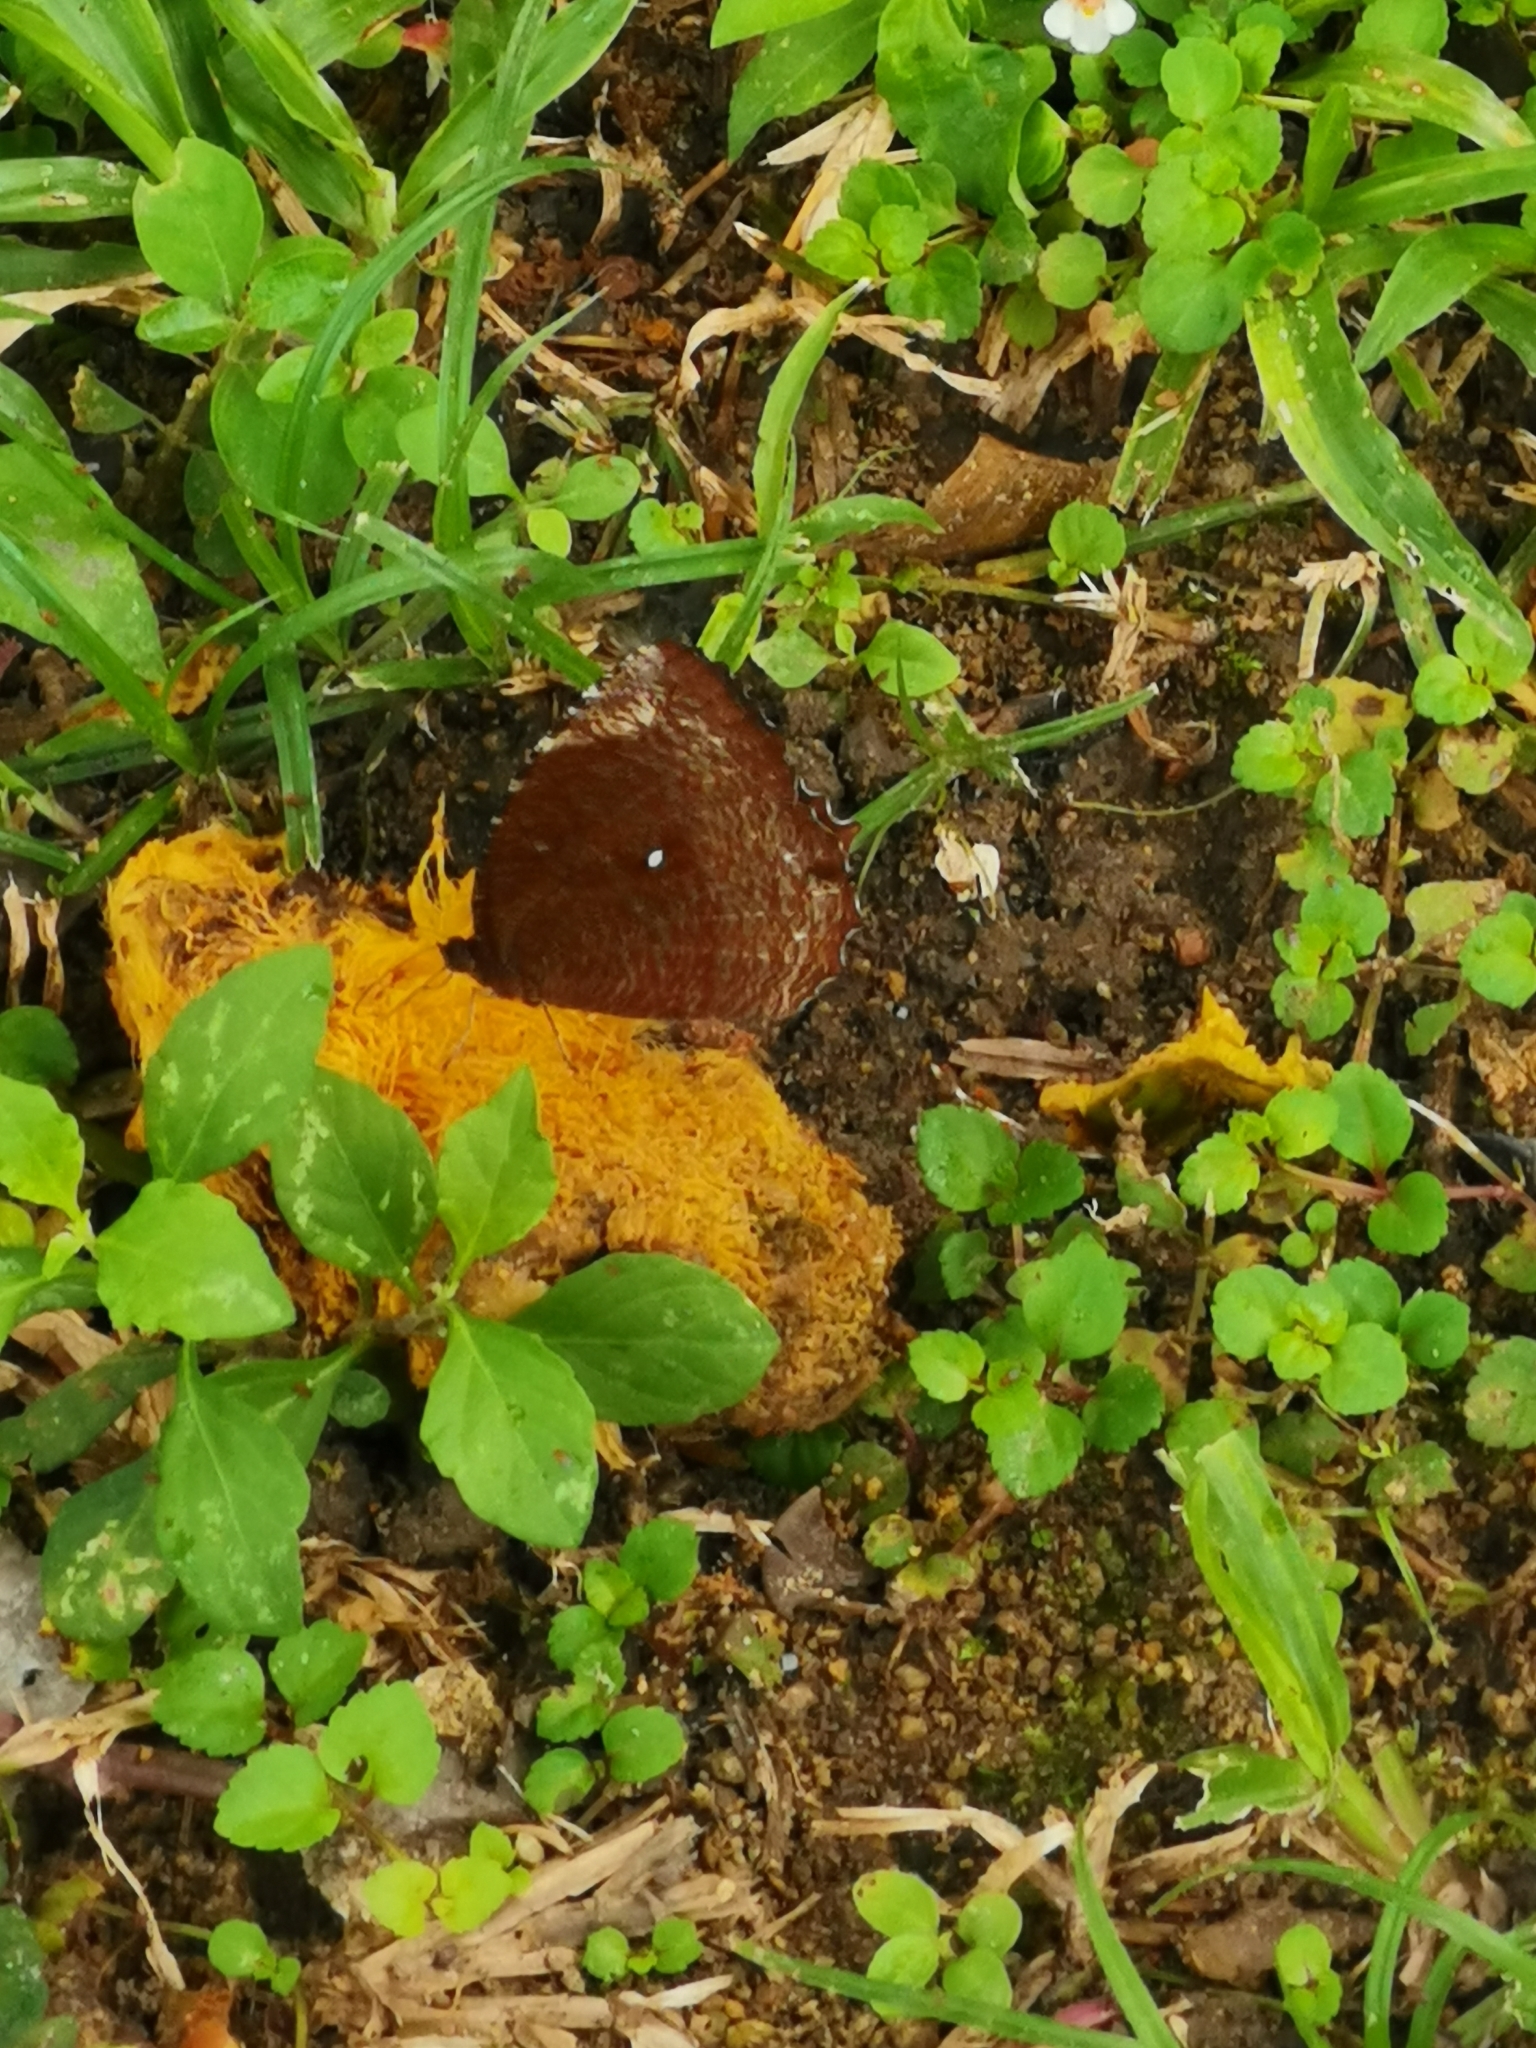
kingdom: Animalia
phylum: Arthropoda
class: Insecta
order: Lepidoptera
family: Nymphalidae
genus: Elymnias
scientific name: Elymnias hypermnestra
